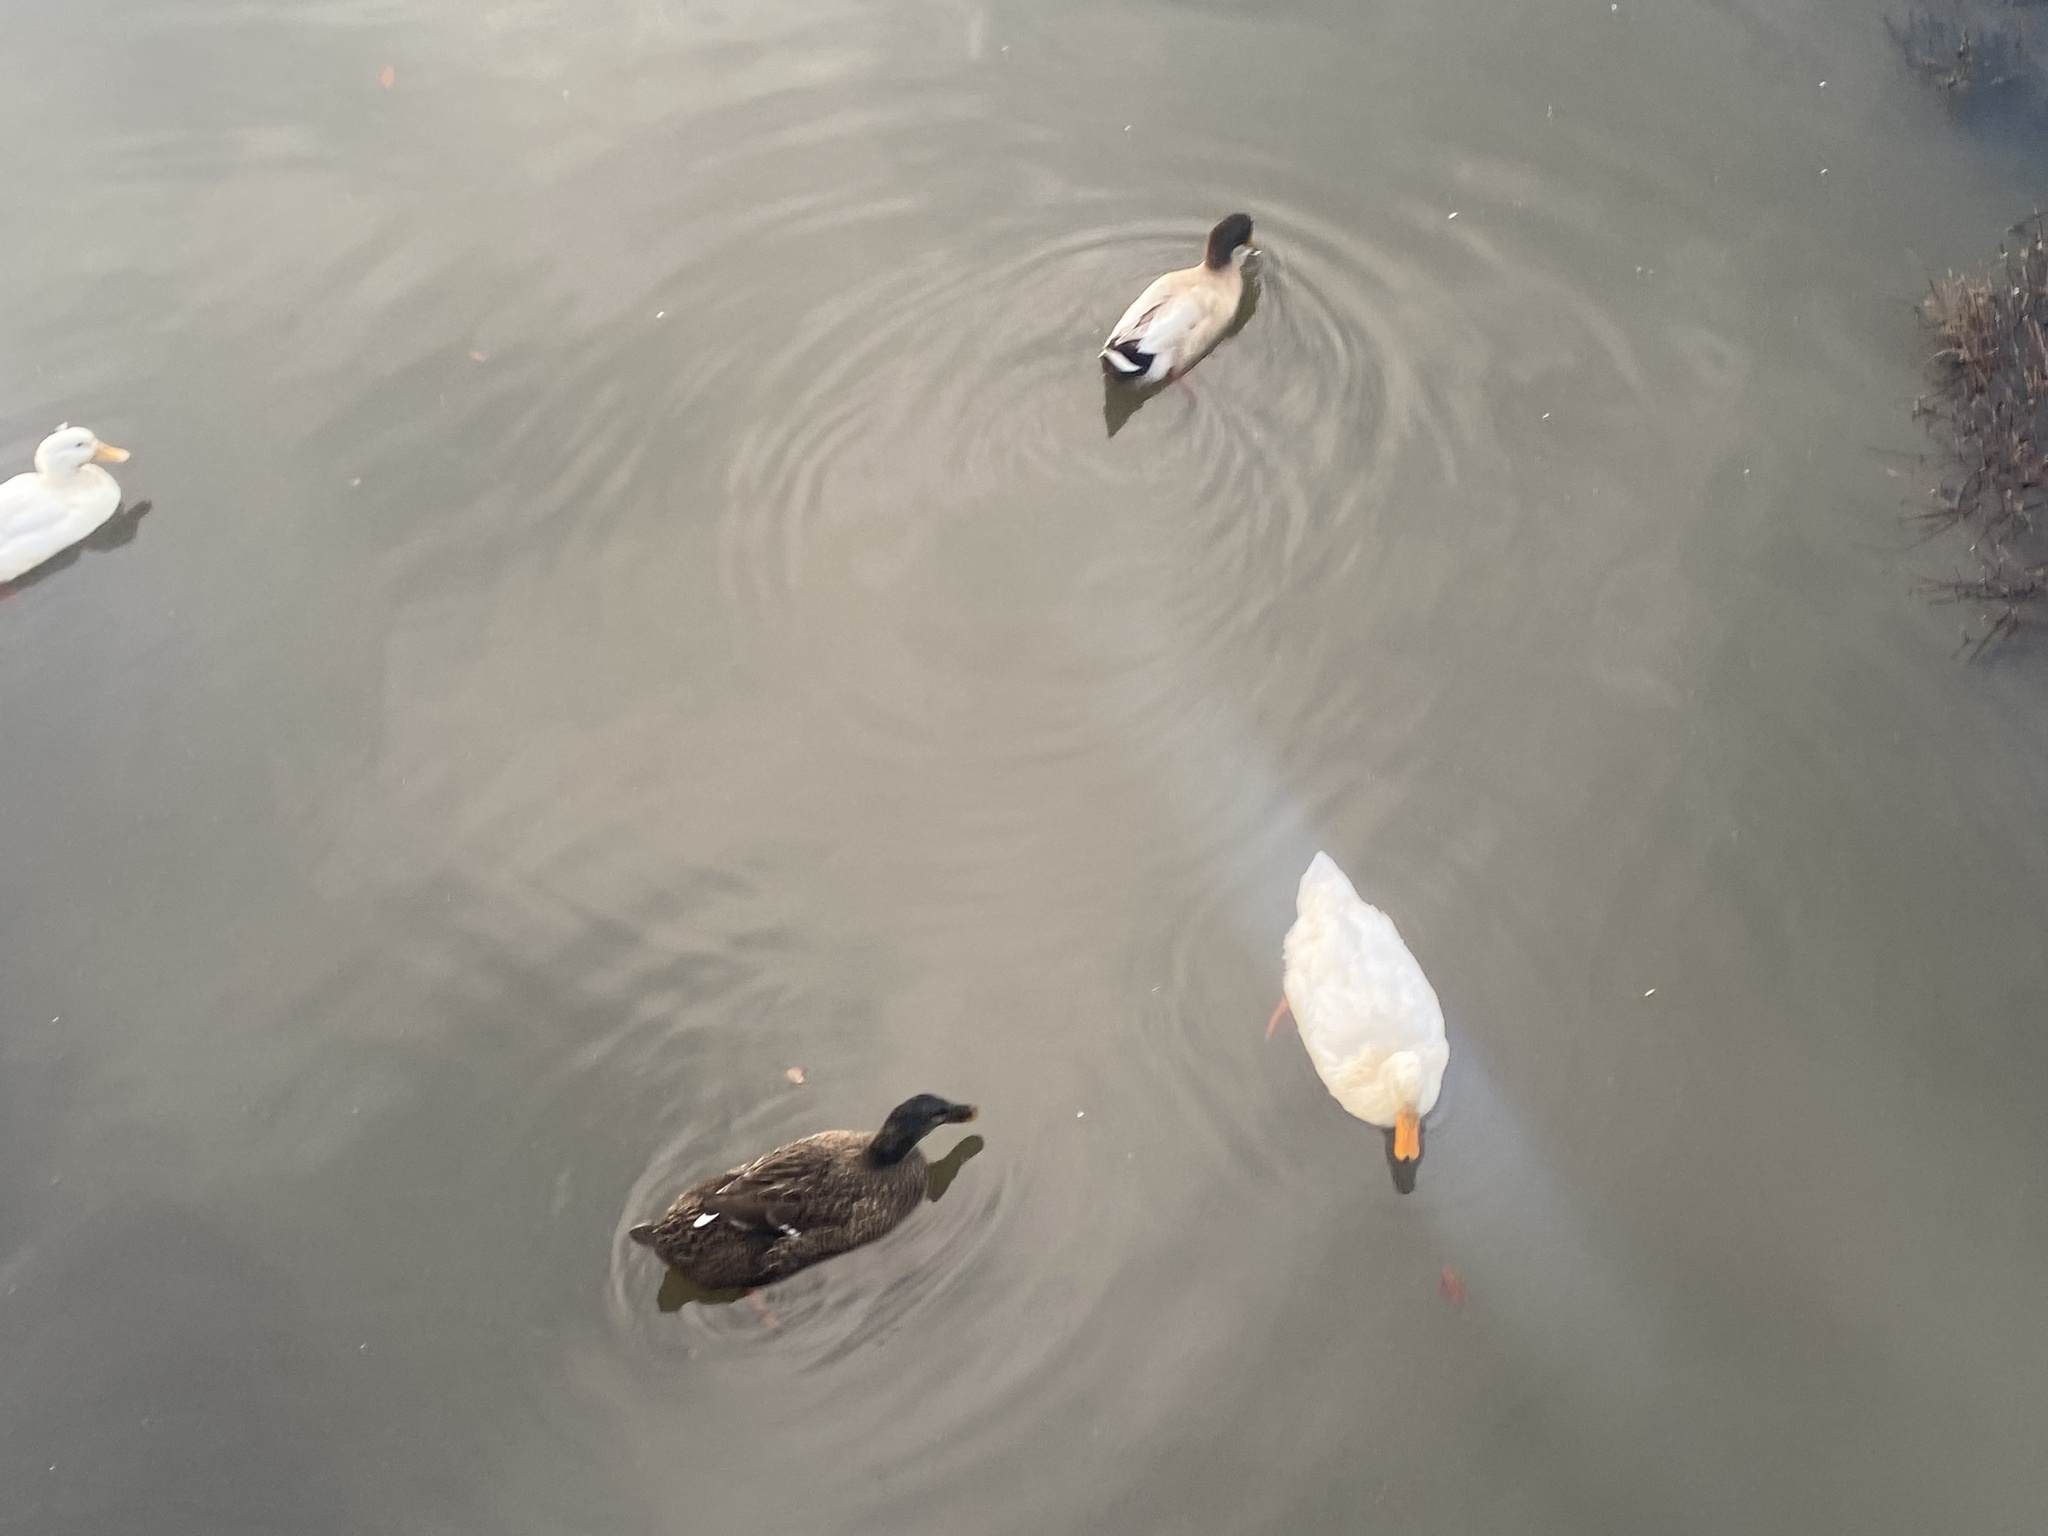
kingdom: Animalia
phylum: Chordata
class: Aves
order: Anseriformes
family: Anatidae
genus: Anas
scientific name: Anas platyrhynchos
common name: Mallard
